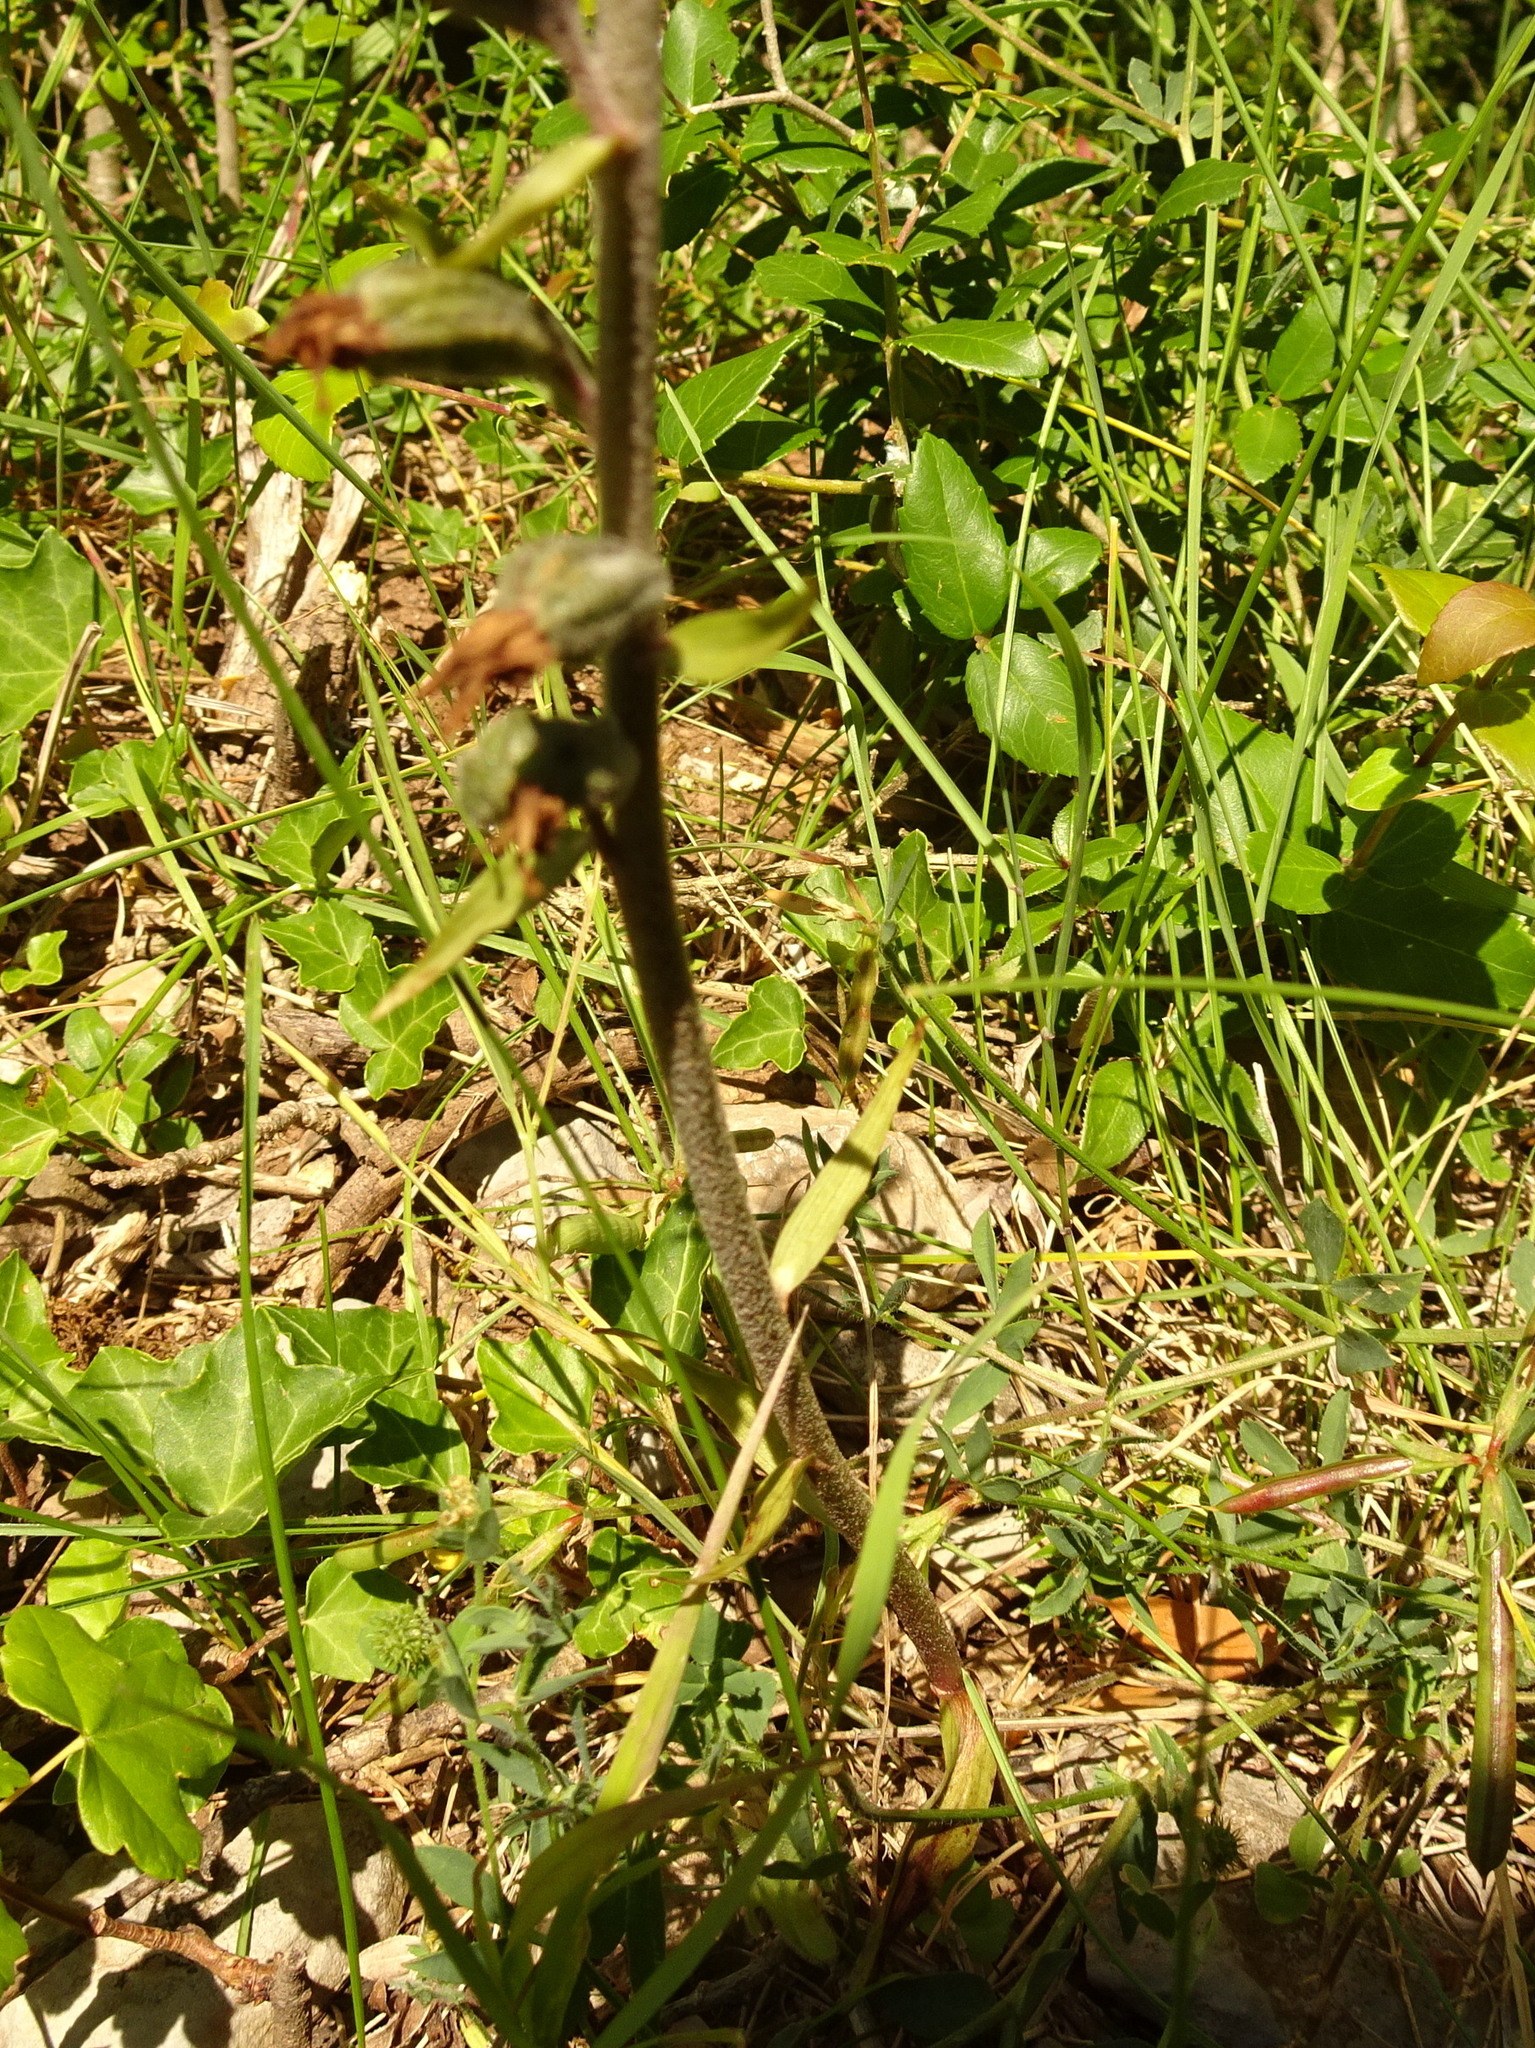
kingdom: Plantae
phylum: Tracheophyta
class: Liliopsida
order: Asparagales
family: Orchidaceae
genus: Epipactis
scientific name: Epipactis microphylla
